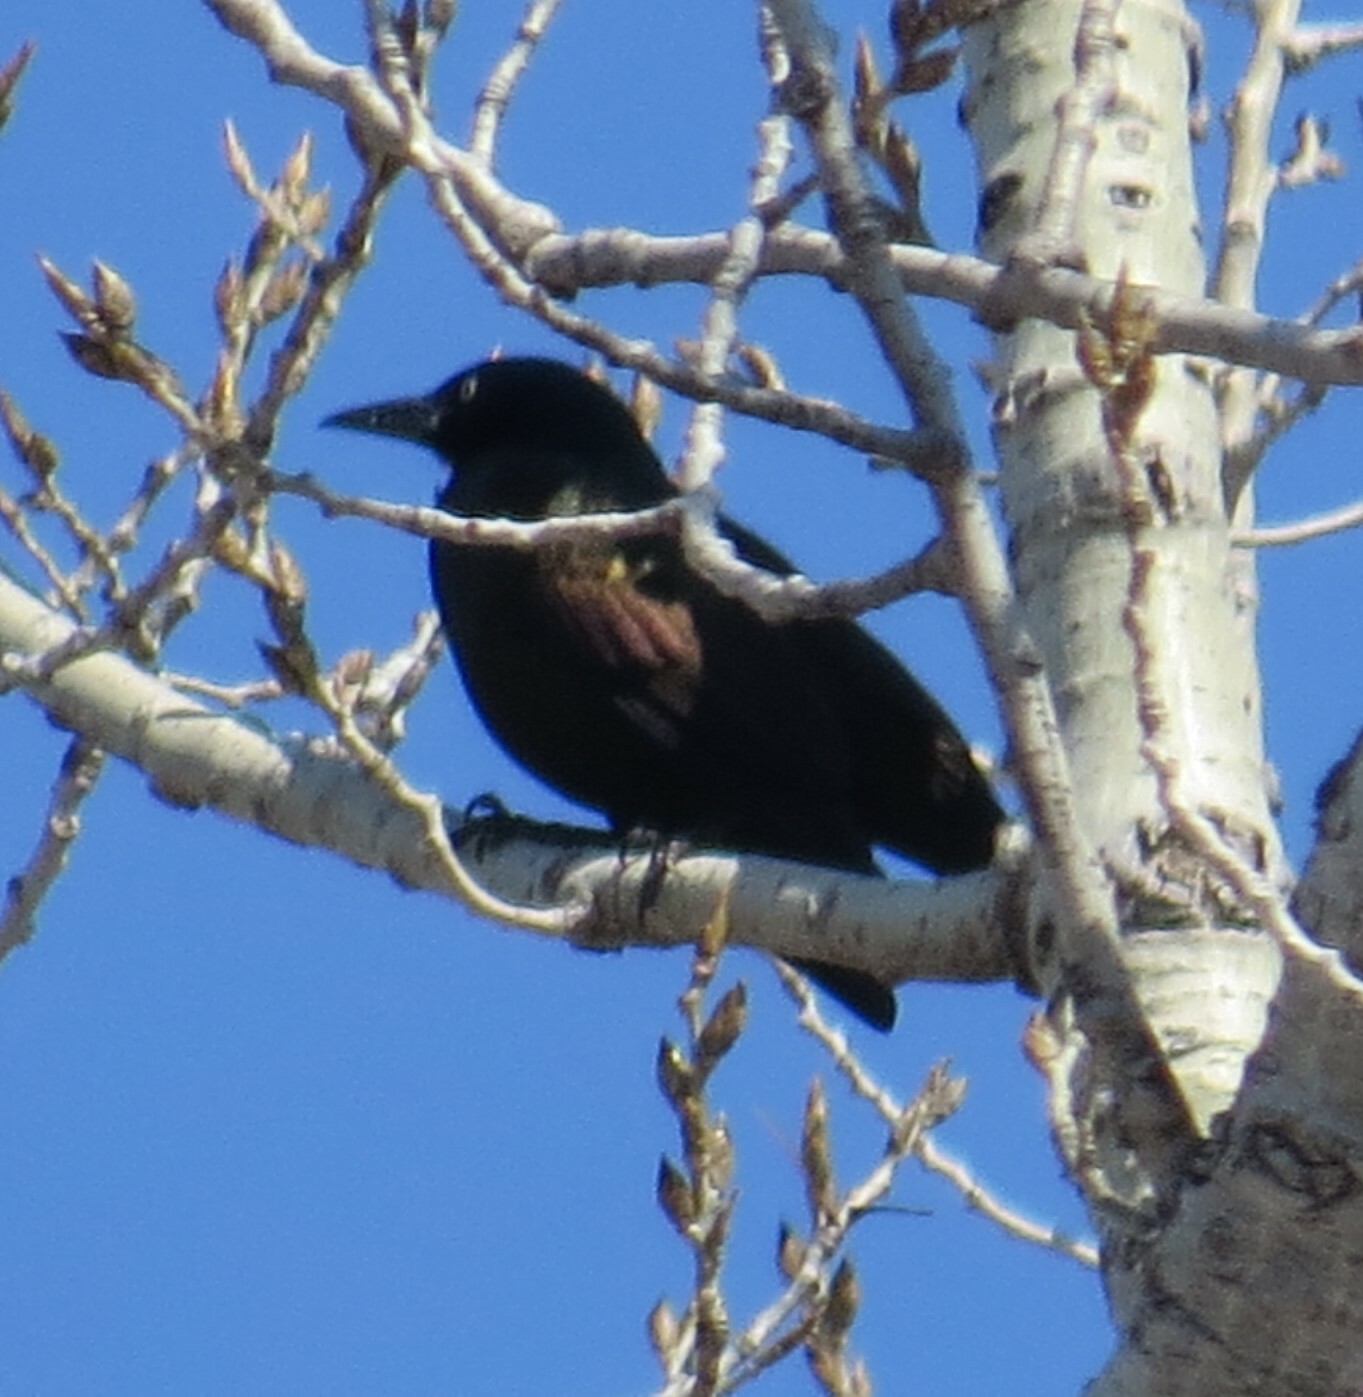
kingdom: Animalia
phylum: Chordata
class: Aves
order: Passeriformes
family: Icteridae
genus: Quiscalus
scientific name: Quiscalus quiscula
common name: Common grackle
